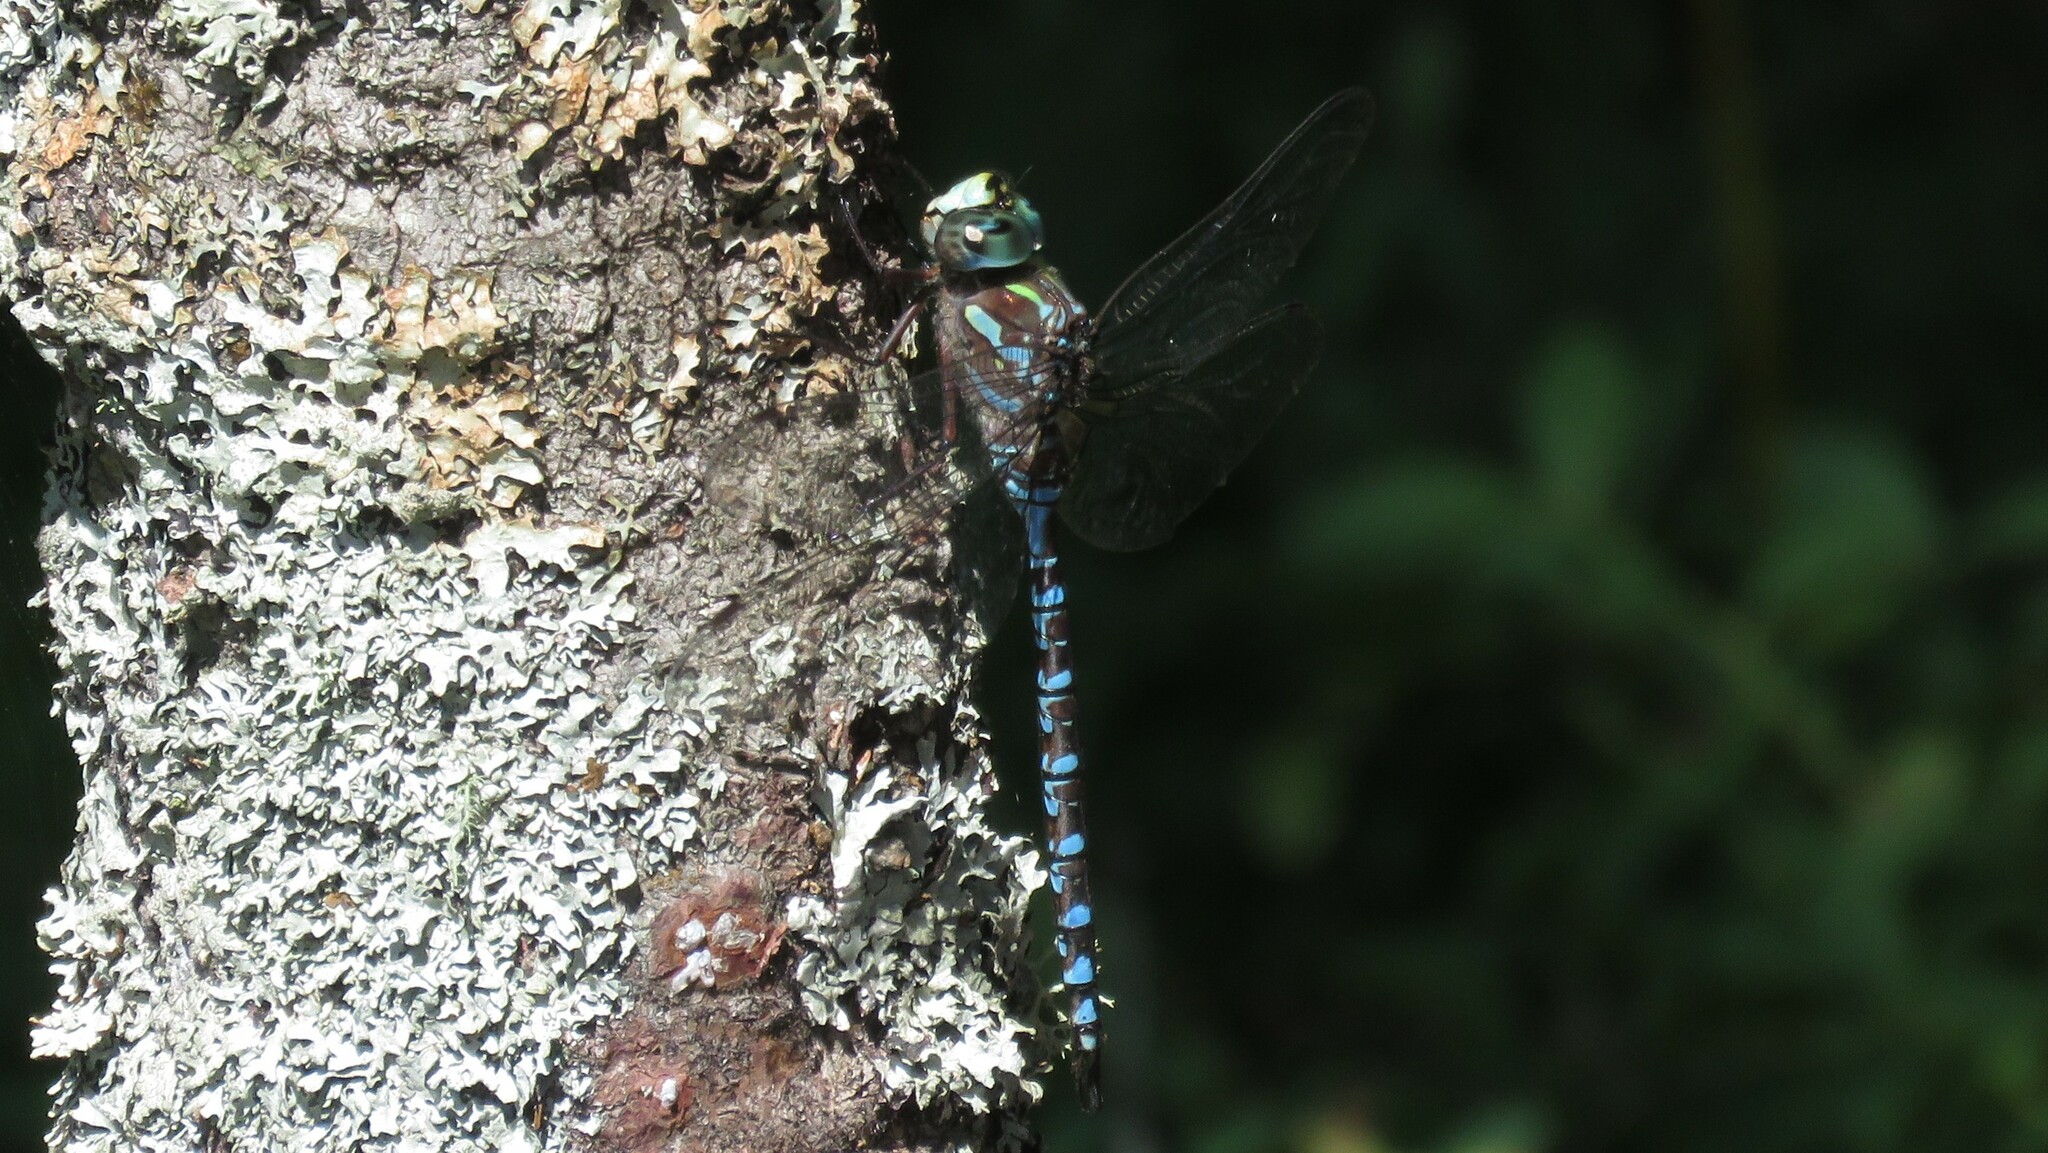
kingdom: Animalia
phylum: Arthropoda
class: Insecta
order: Odonata
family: Aeshnidae
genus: Aeshna
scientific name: Aeshna canadensis
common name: Canada darner
